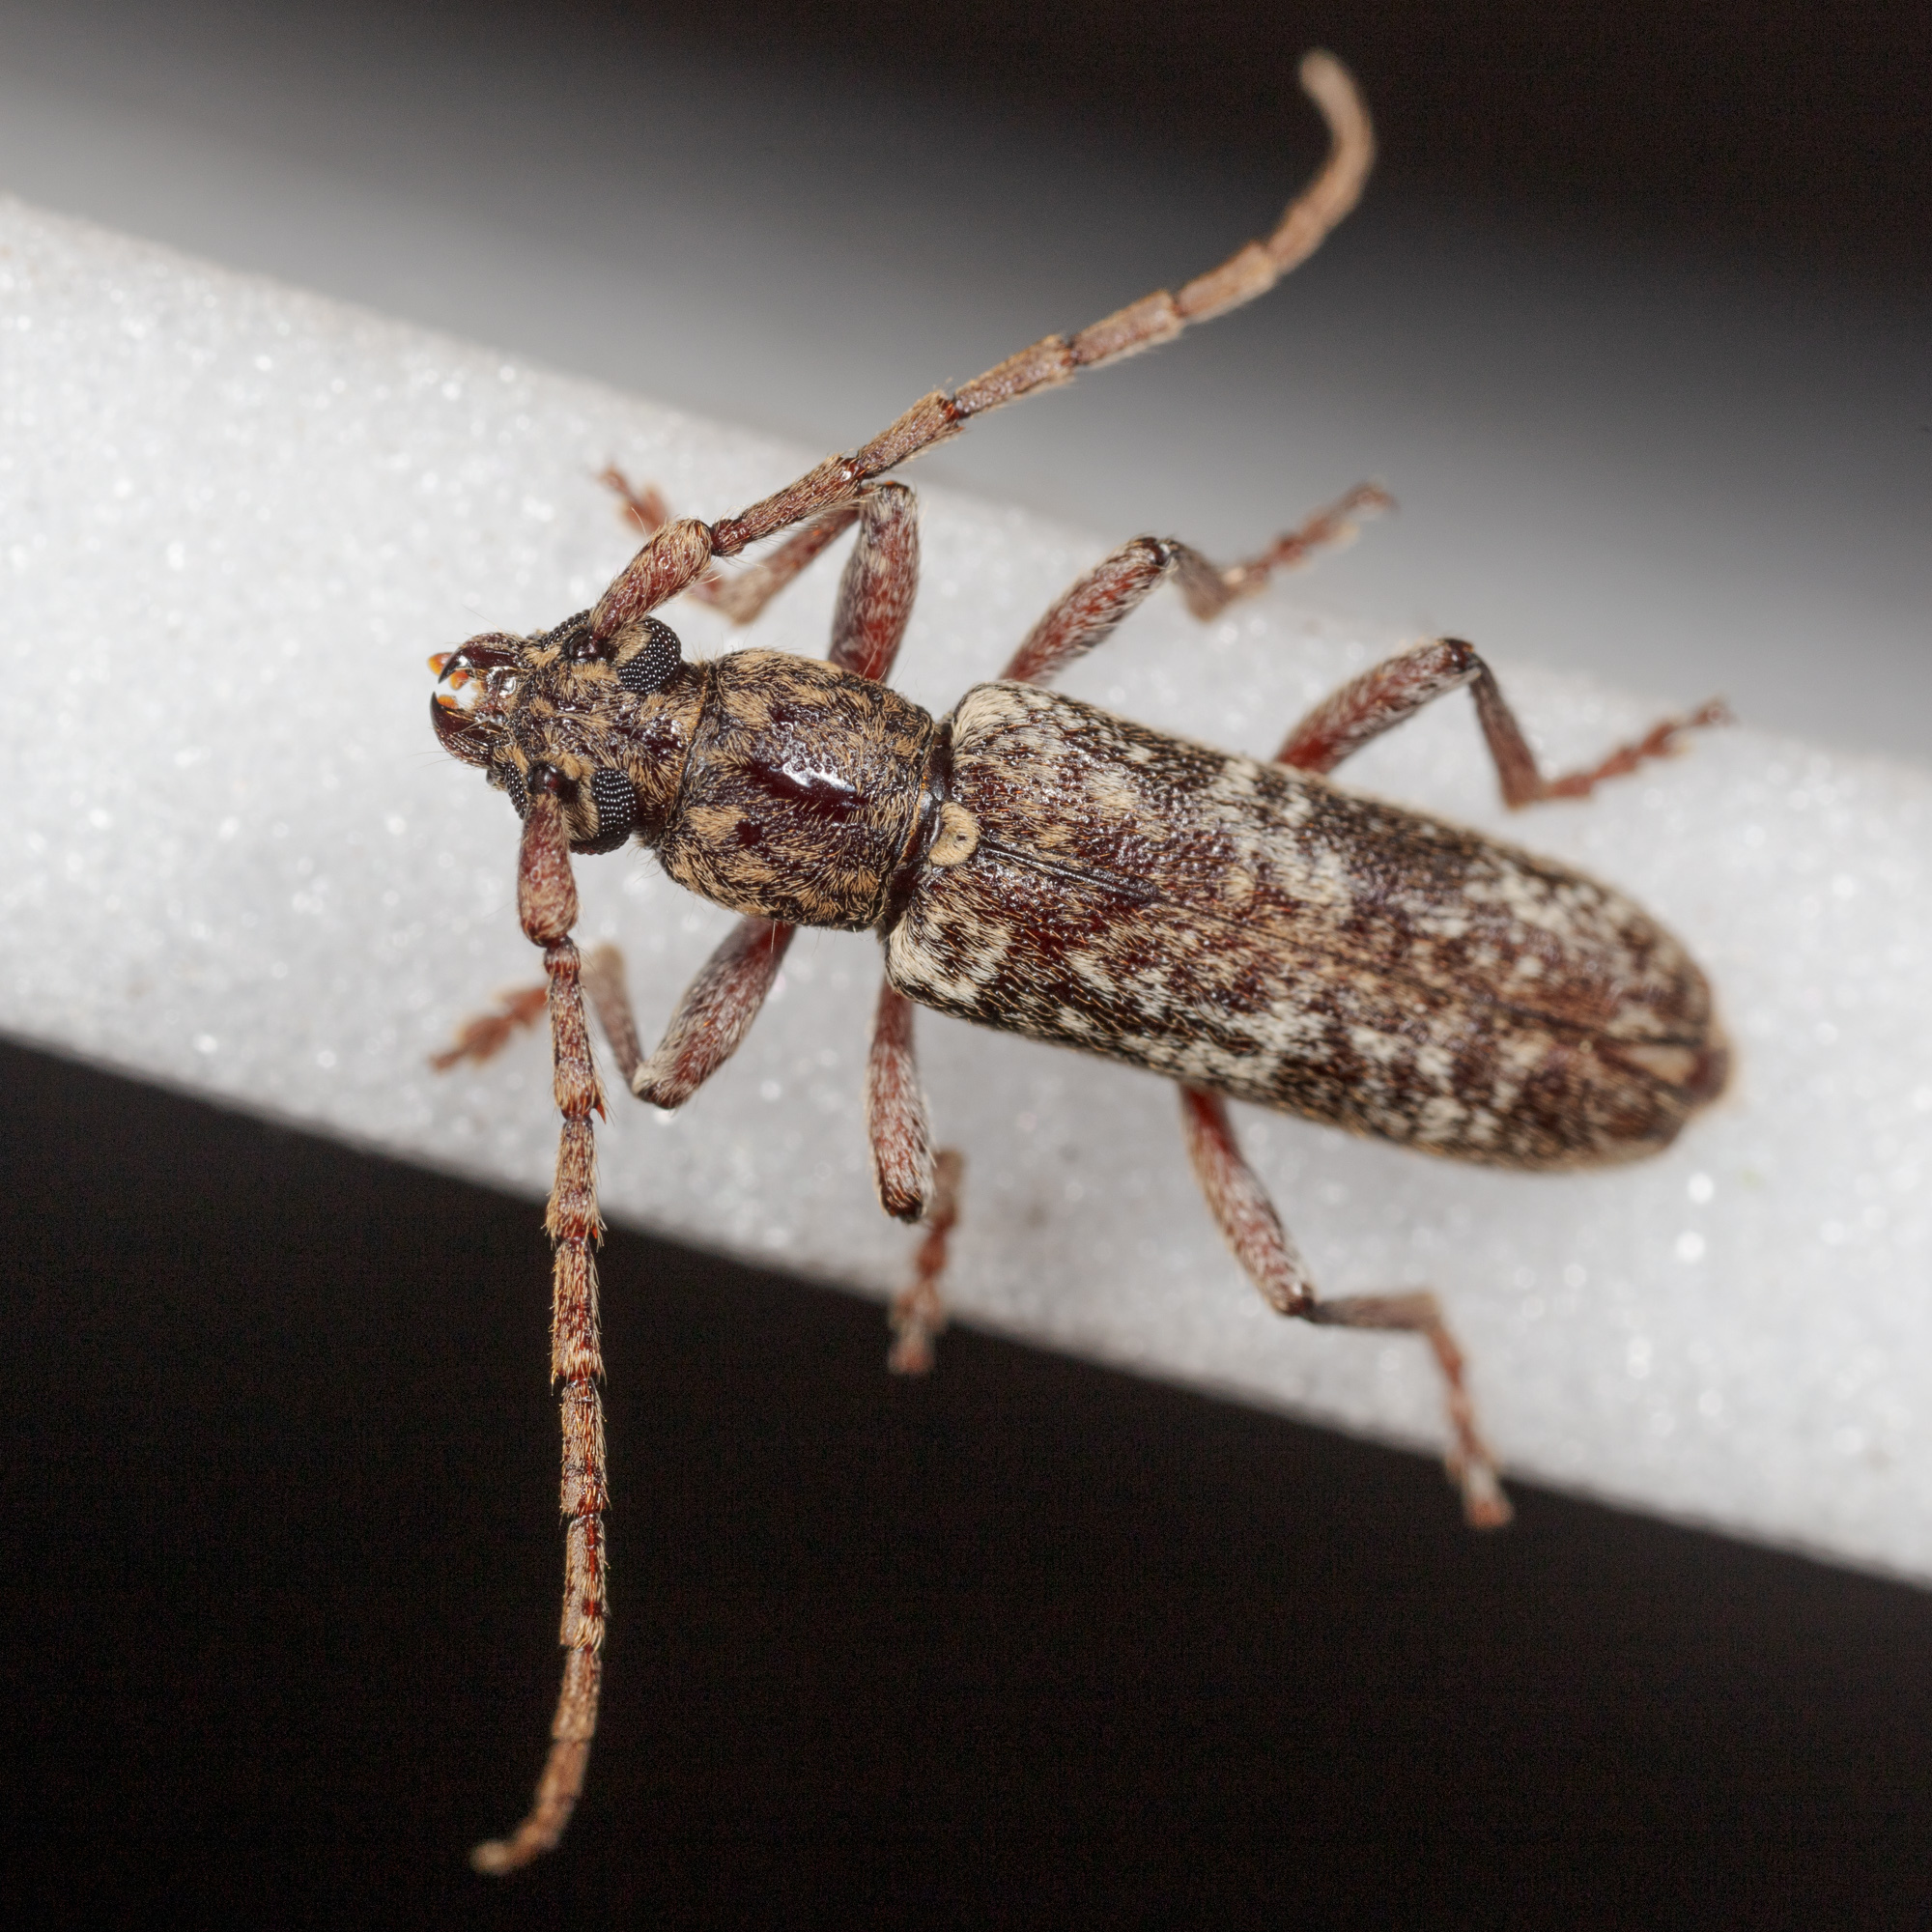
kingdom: Animalia
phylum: Arthropoda
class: Insecta
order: Coleoptera
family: Cerambycidae
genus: Anelaphus
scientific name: Anelaphus debilis
